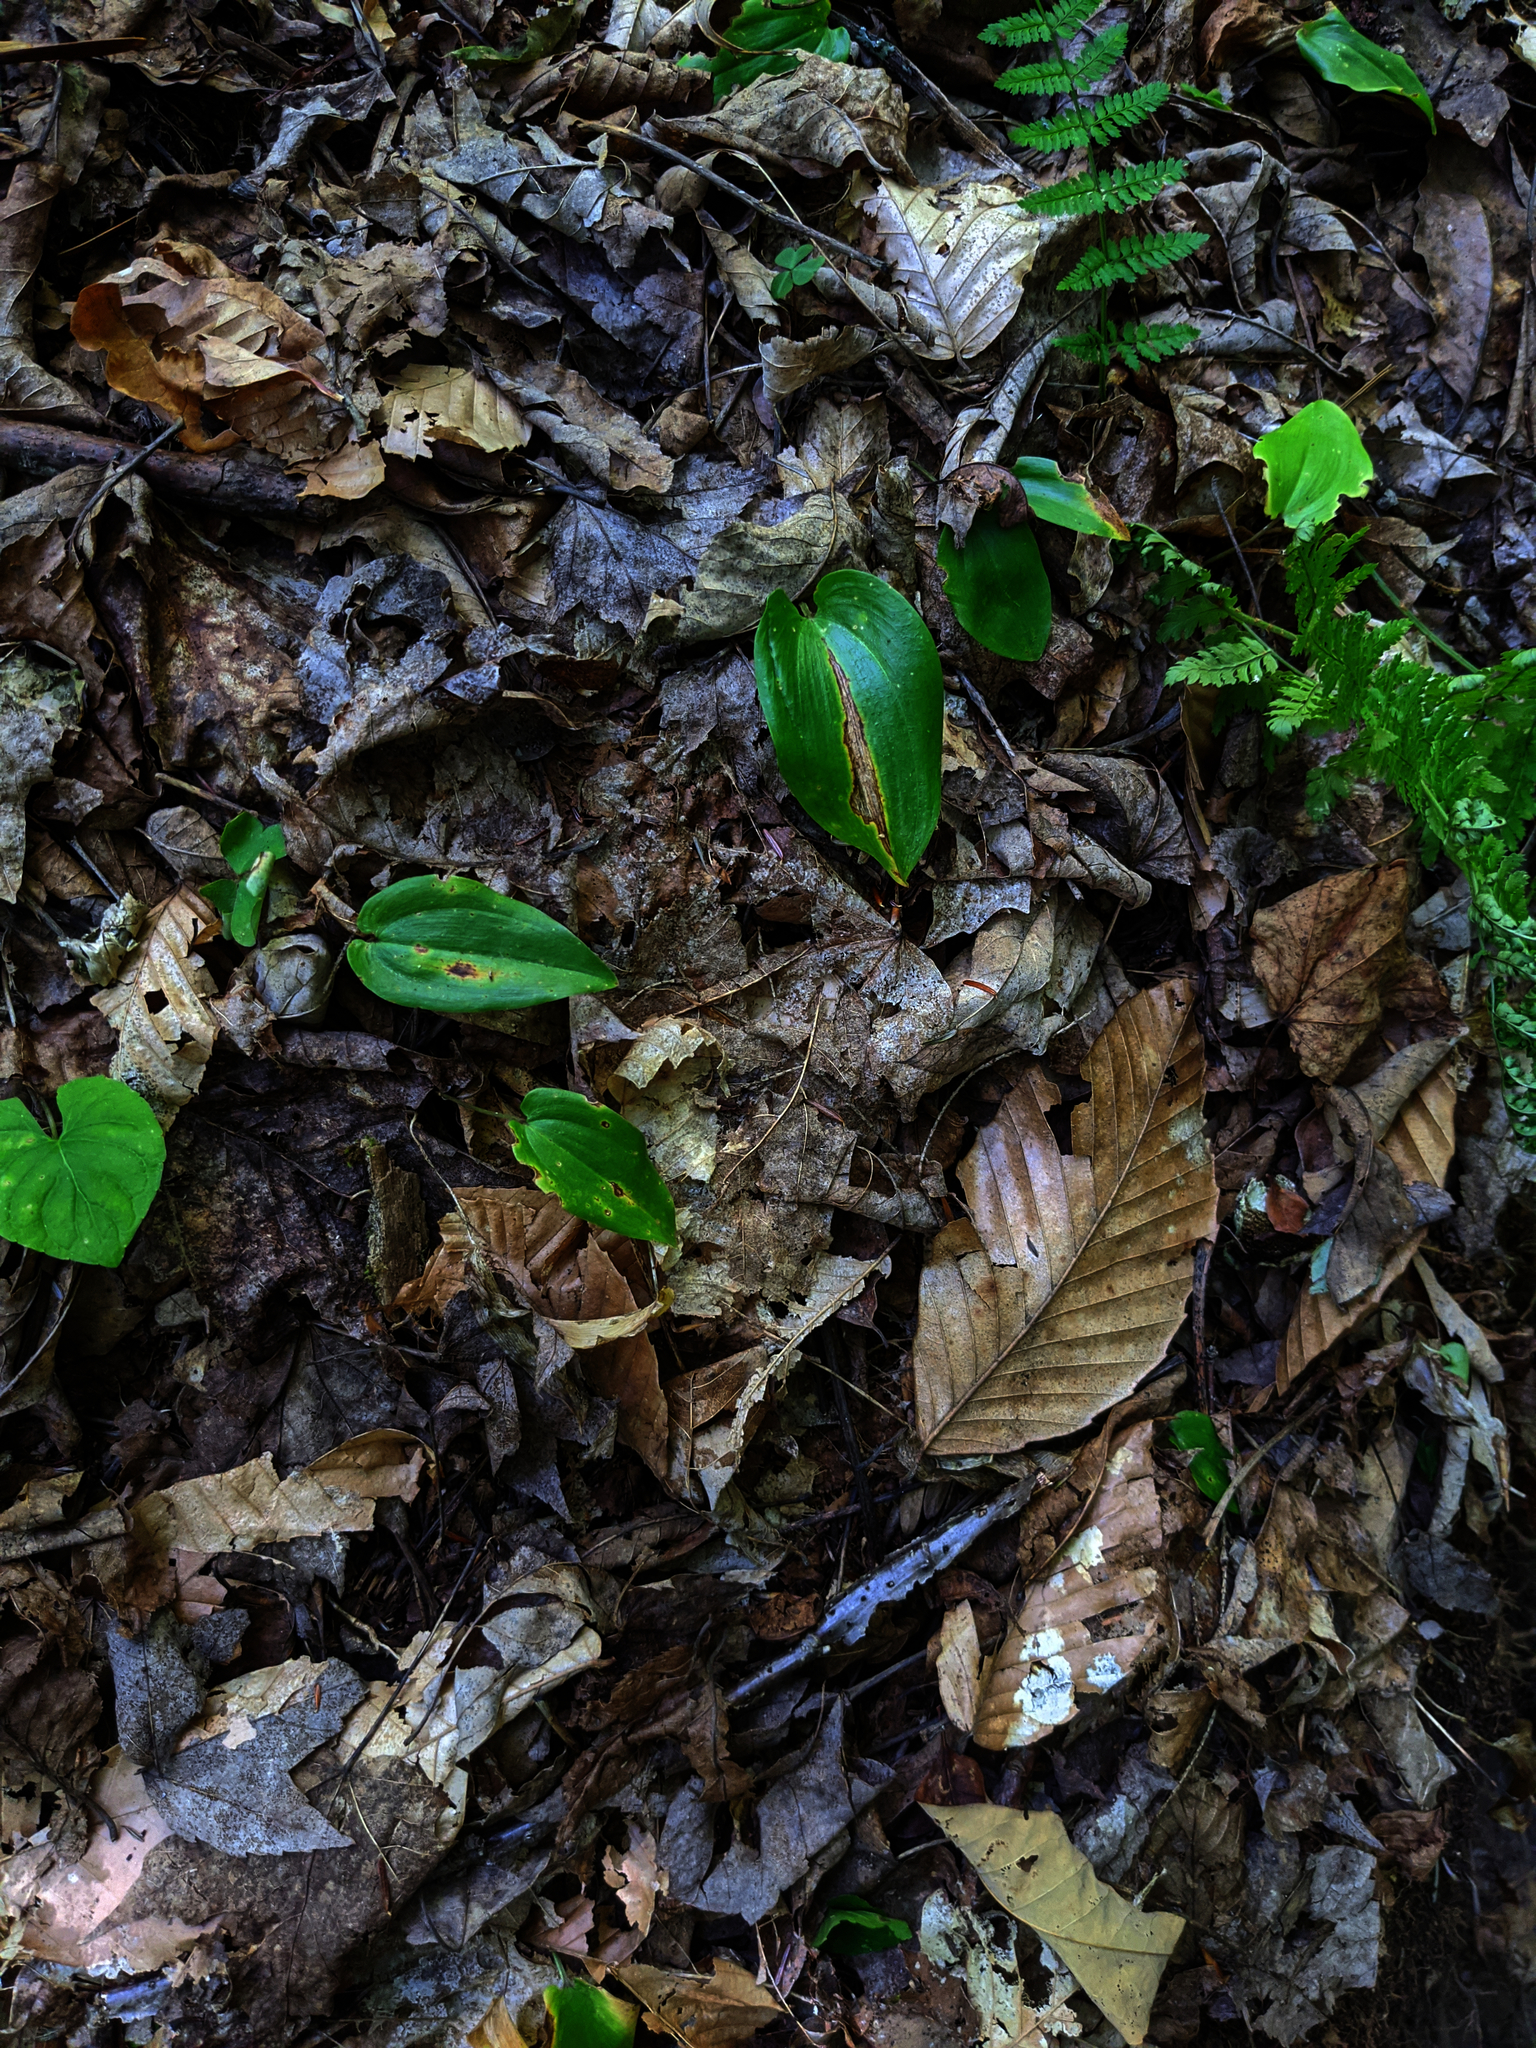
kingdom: Plantae
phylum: Tracheophyta
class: Liliopsida
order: Asparagales
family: Asparagaceae
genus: Maianthemum
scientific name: Maianthemum canadense
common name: False lily-of-the-valley
